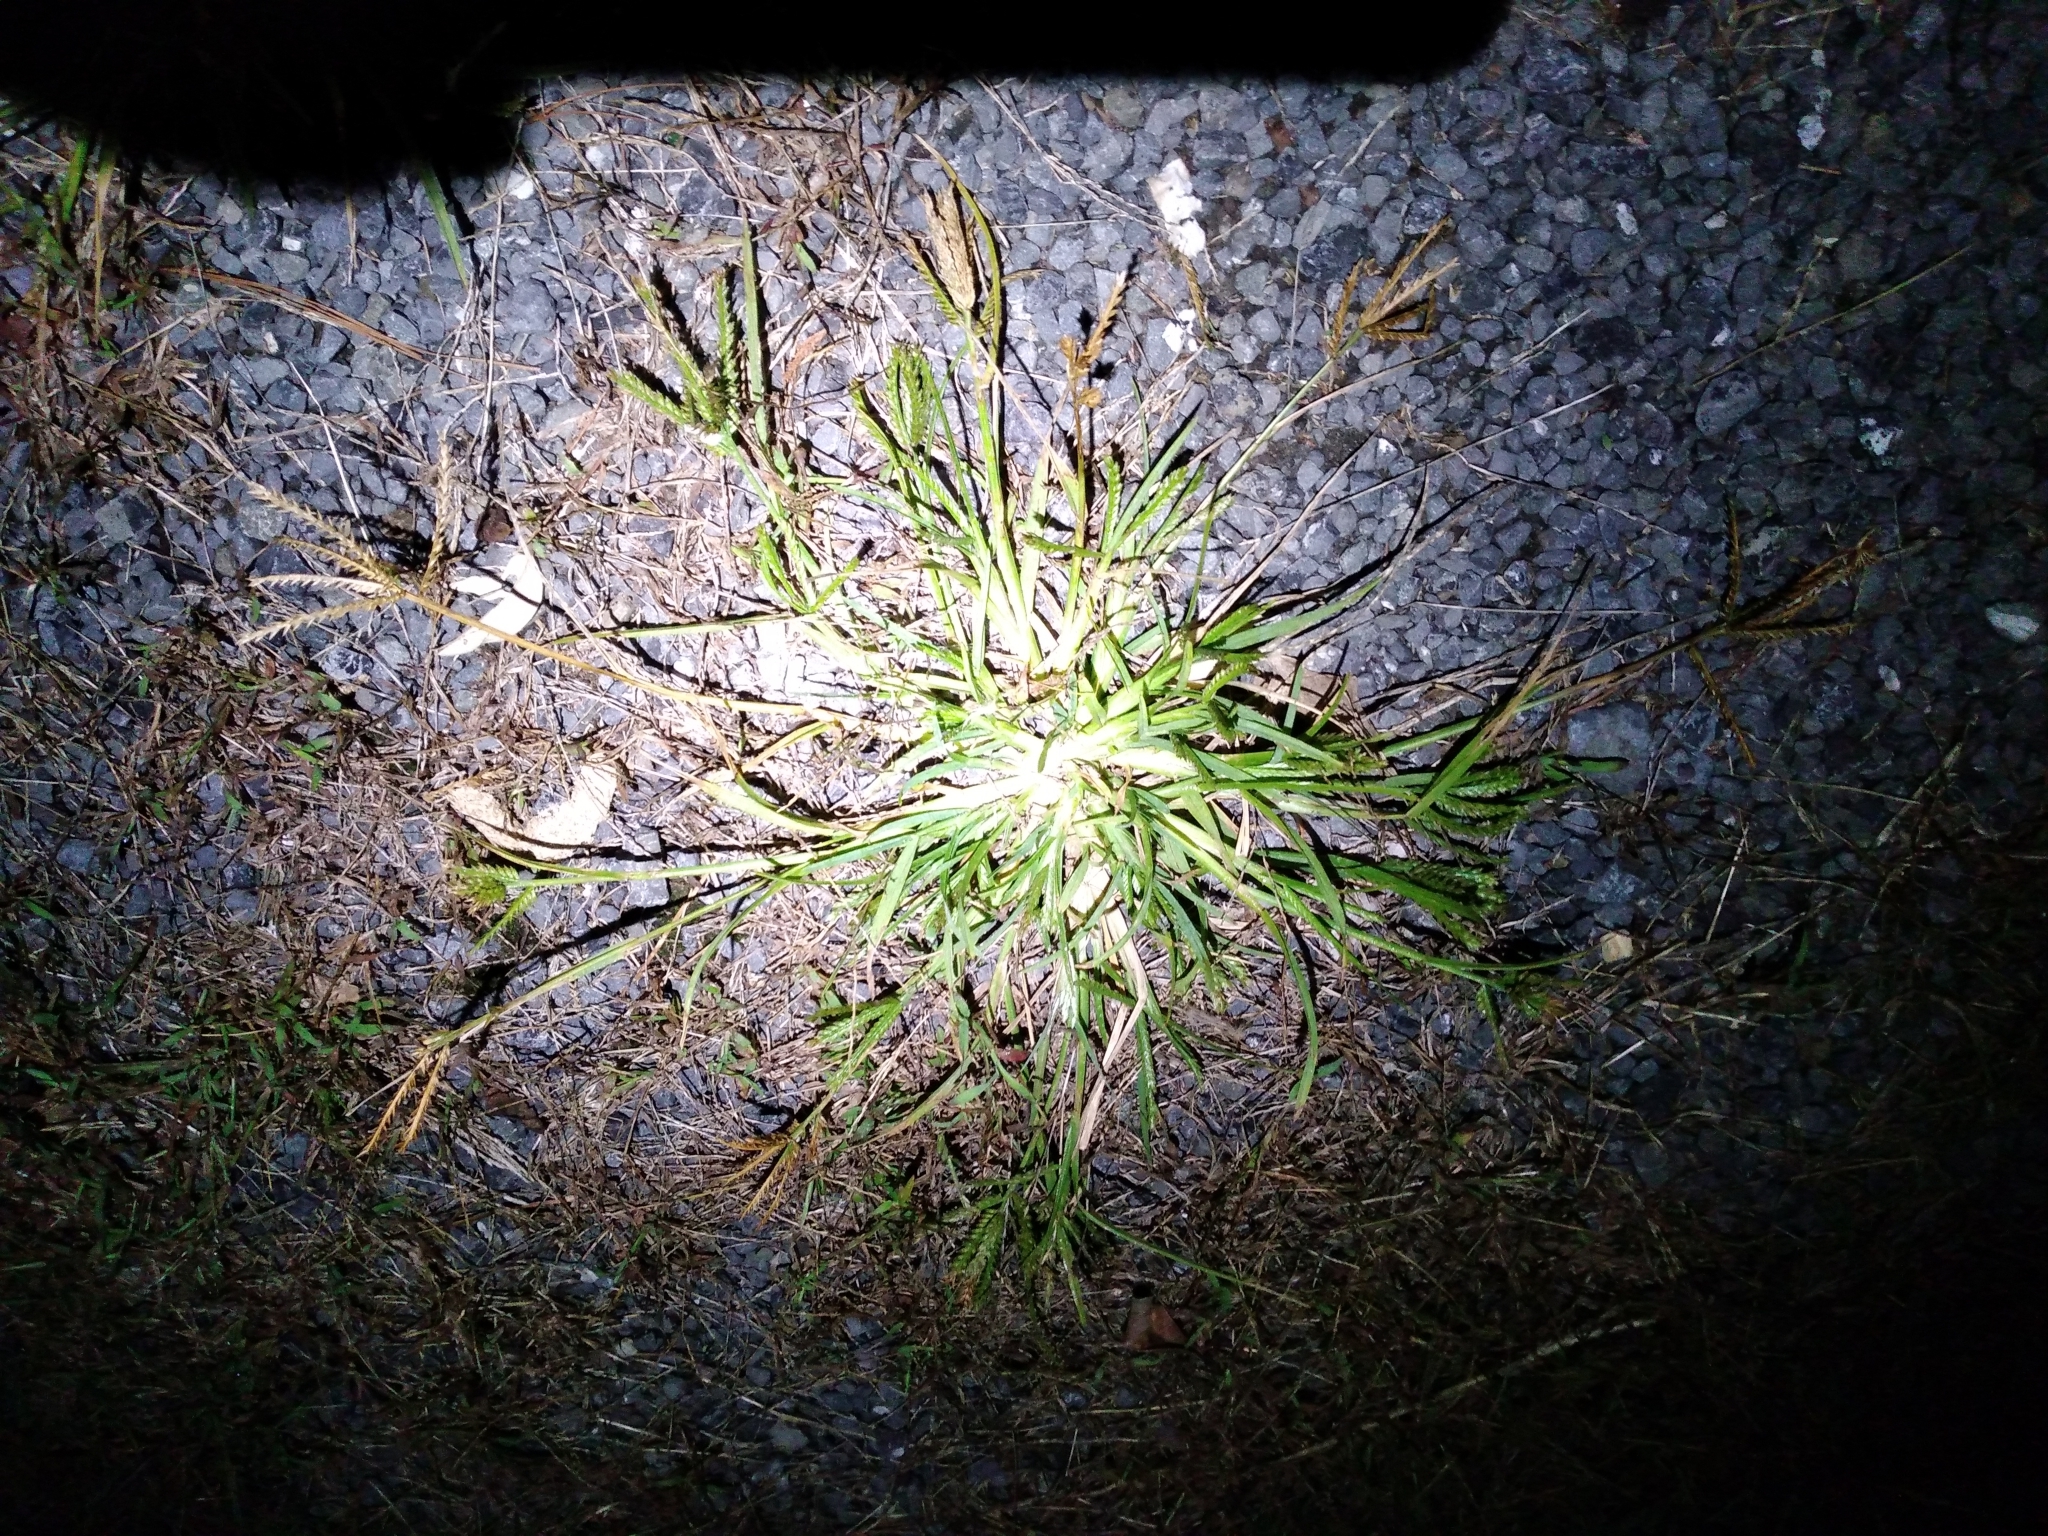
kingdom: Plantae
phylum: Tracheophyta
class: Liliopsida
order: Poales
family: Poaceae
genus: Eleusine
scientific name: Eleusine indica
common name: Yard-grass
